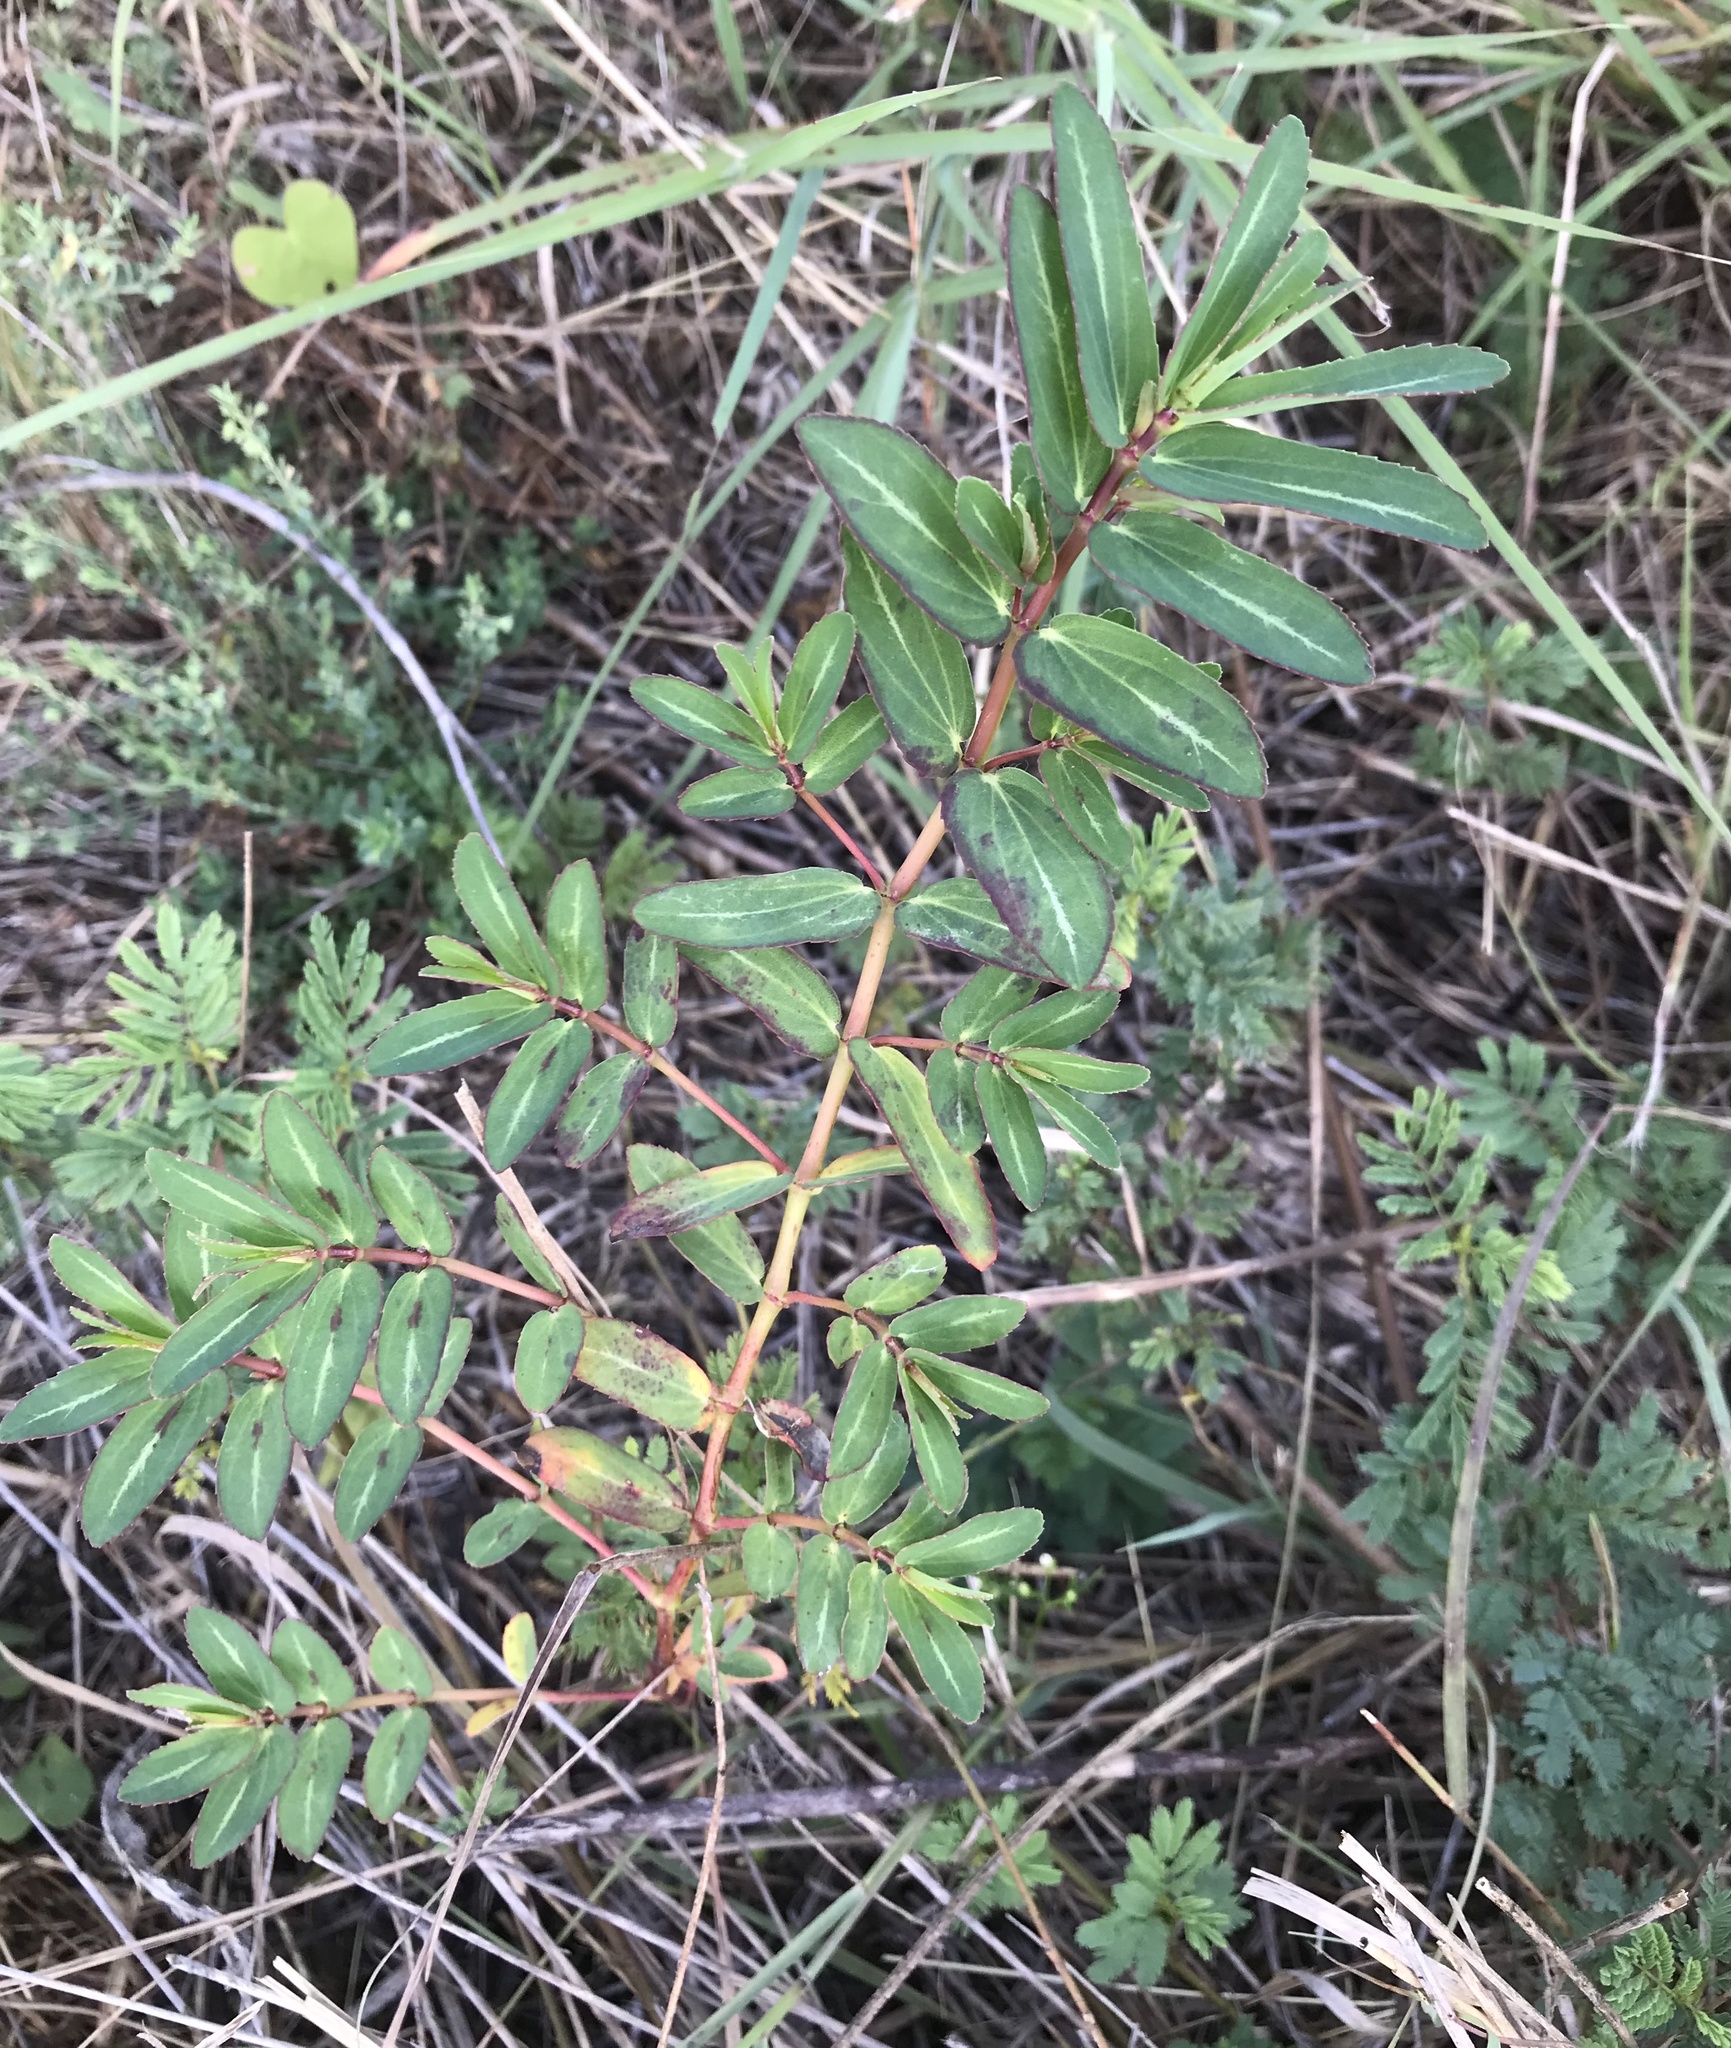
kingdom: Plantae
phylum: Tracheophyta
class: Magnoliopsida
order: Malpighiales
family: Euphorbiaceae
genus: Euphorbia
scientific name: Euphorbia nutans
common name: Eyebane
